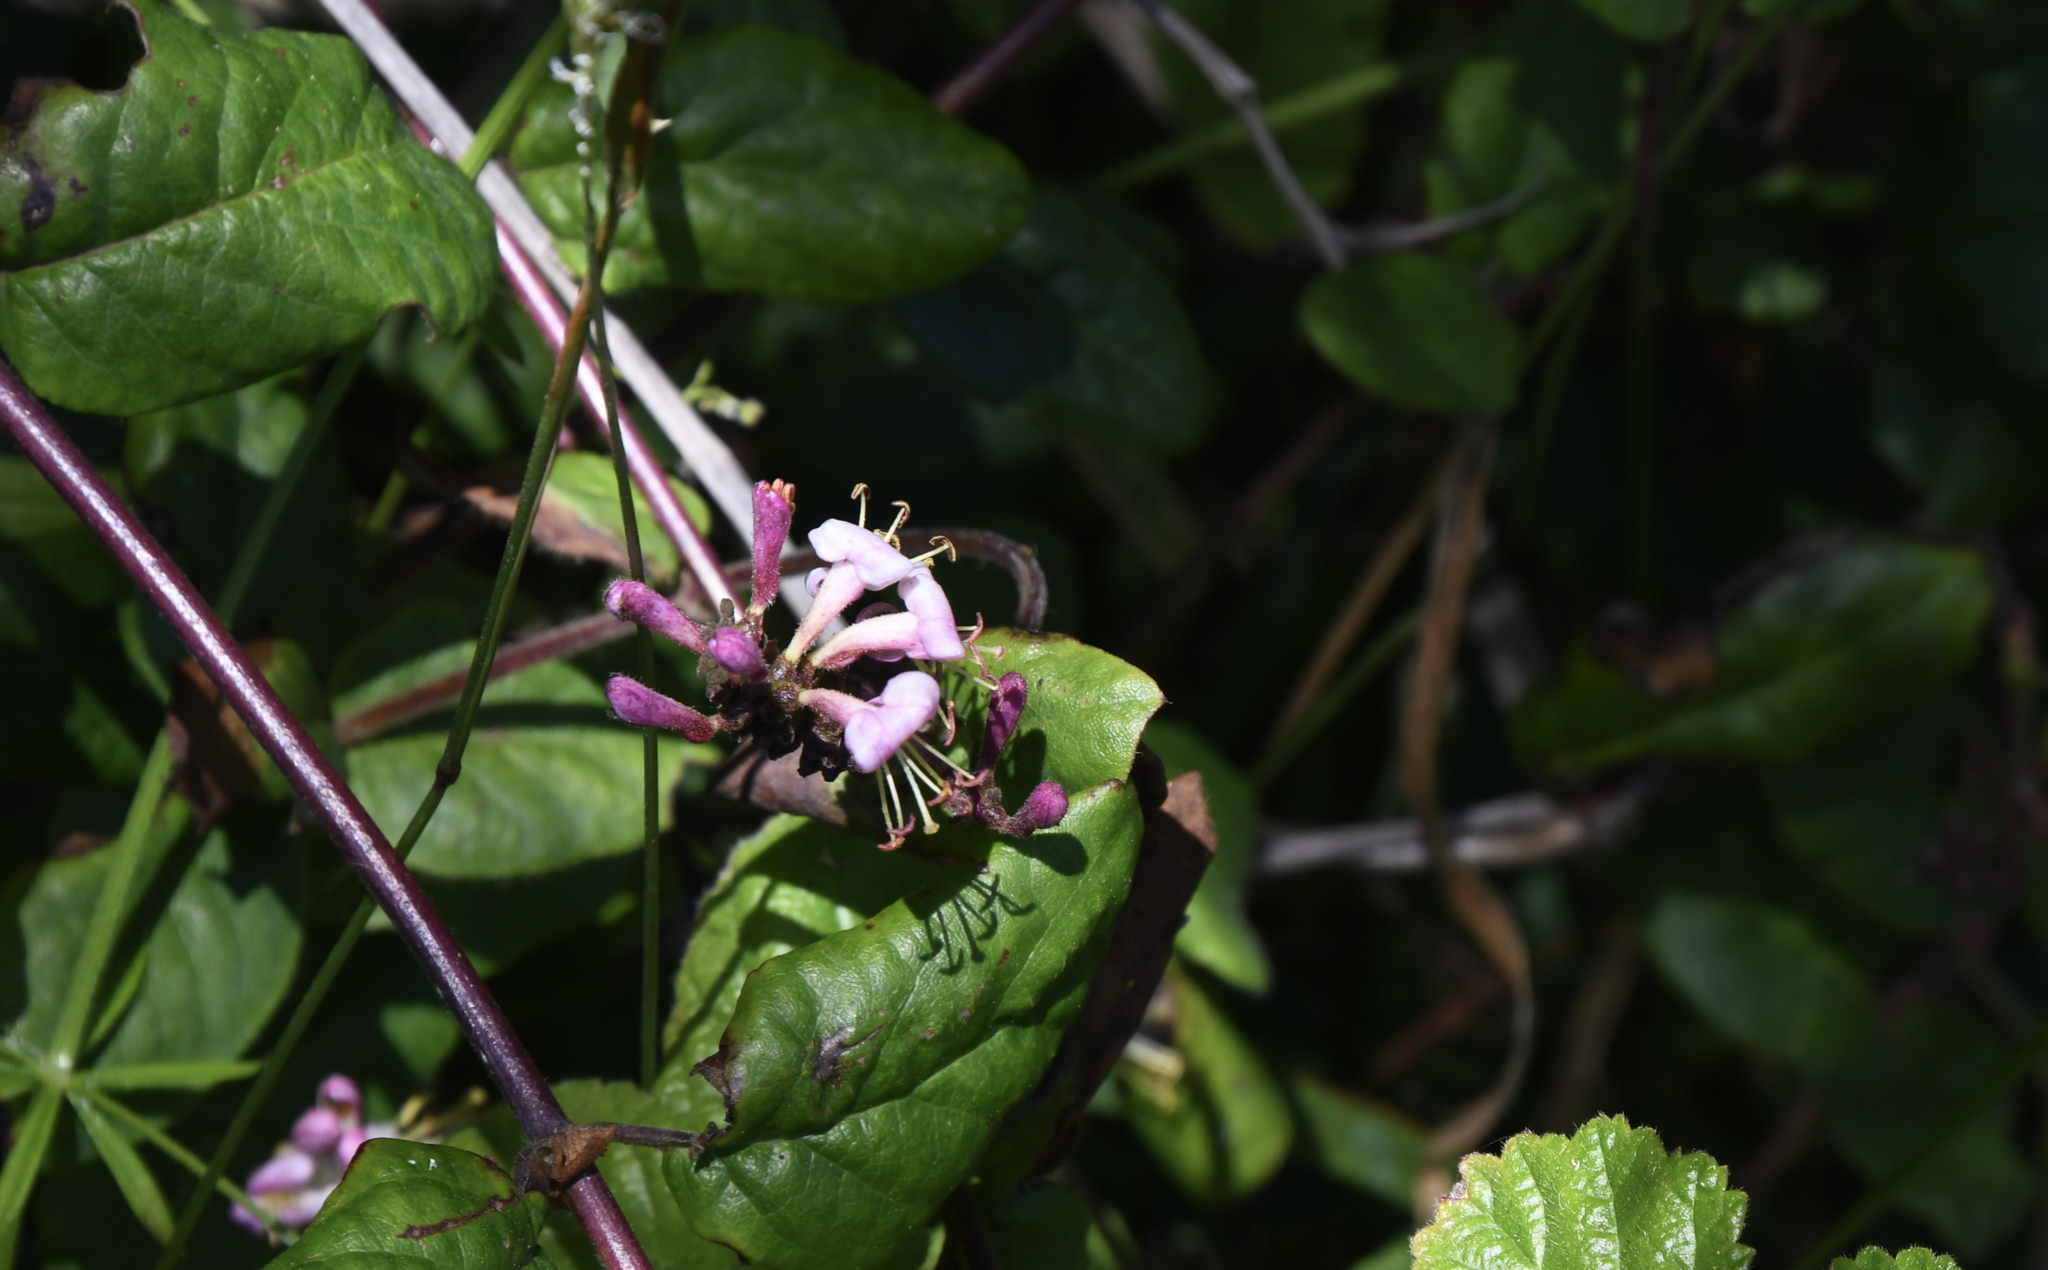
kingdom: Plantae
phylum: Tracheophyta
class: Magnoliopsida
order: Dipsacales
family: Caprifoliaceae
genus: Lonicera
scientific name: Lonicera hispidula
